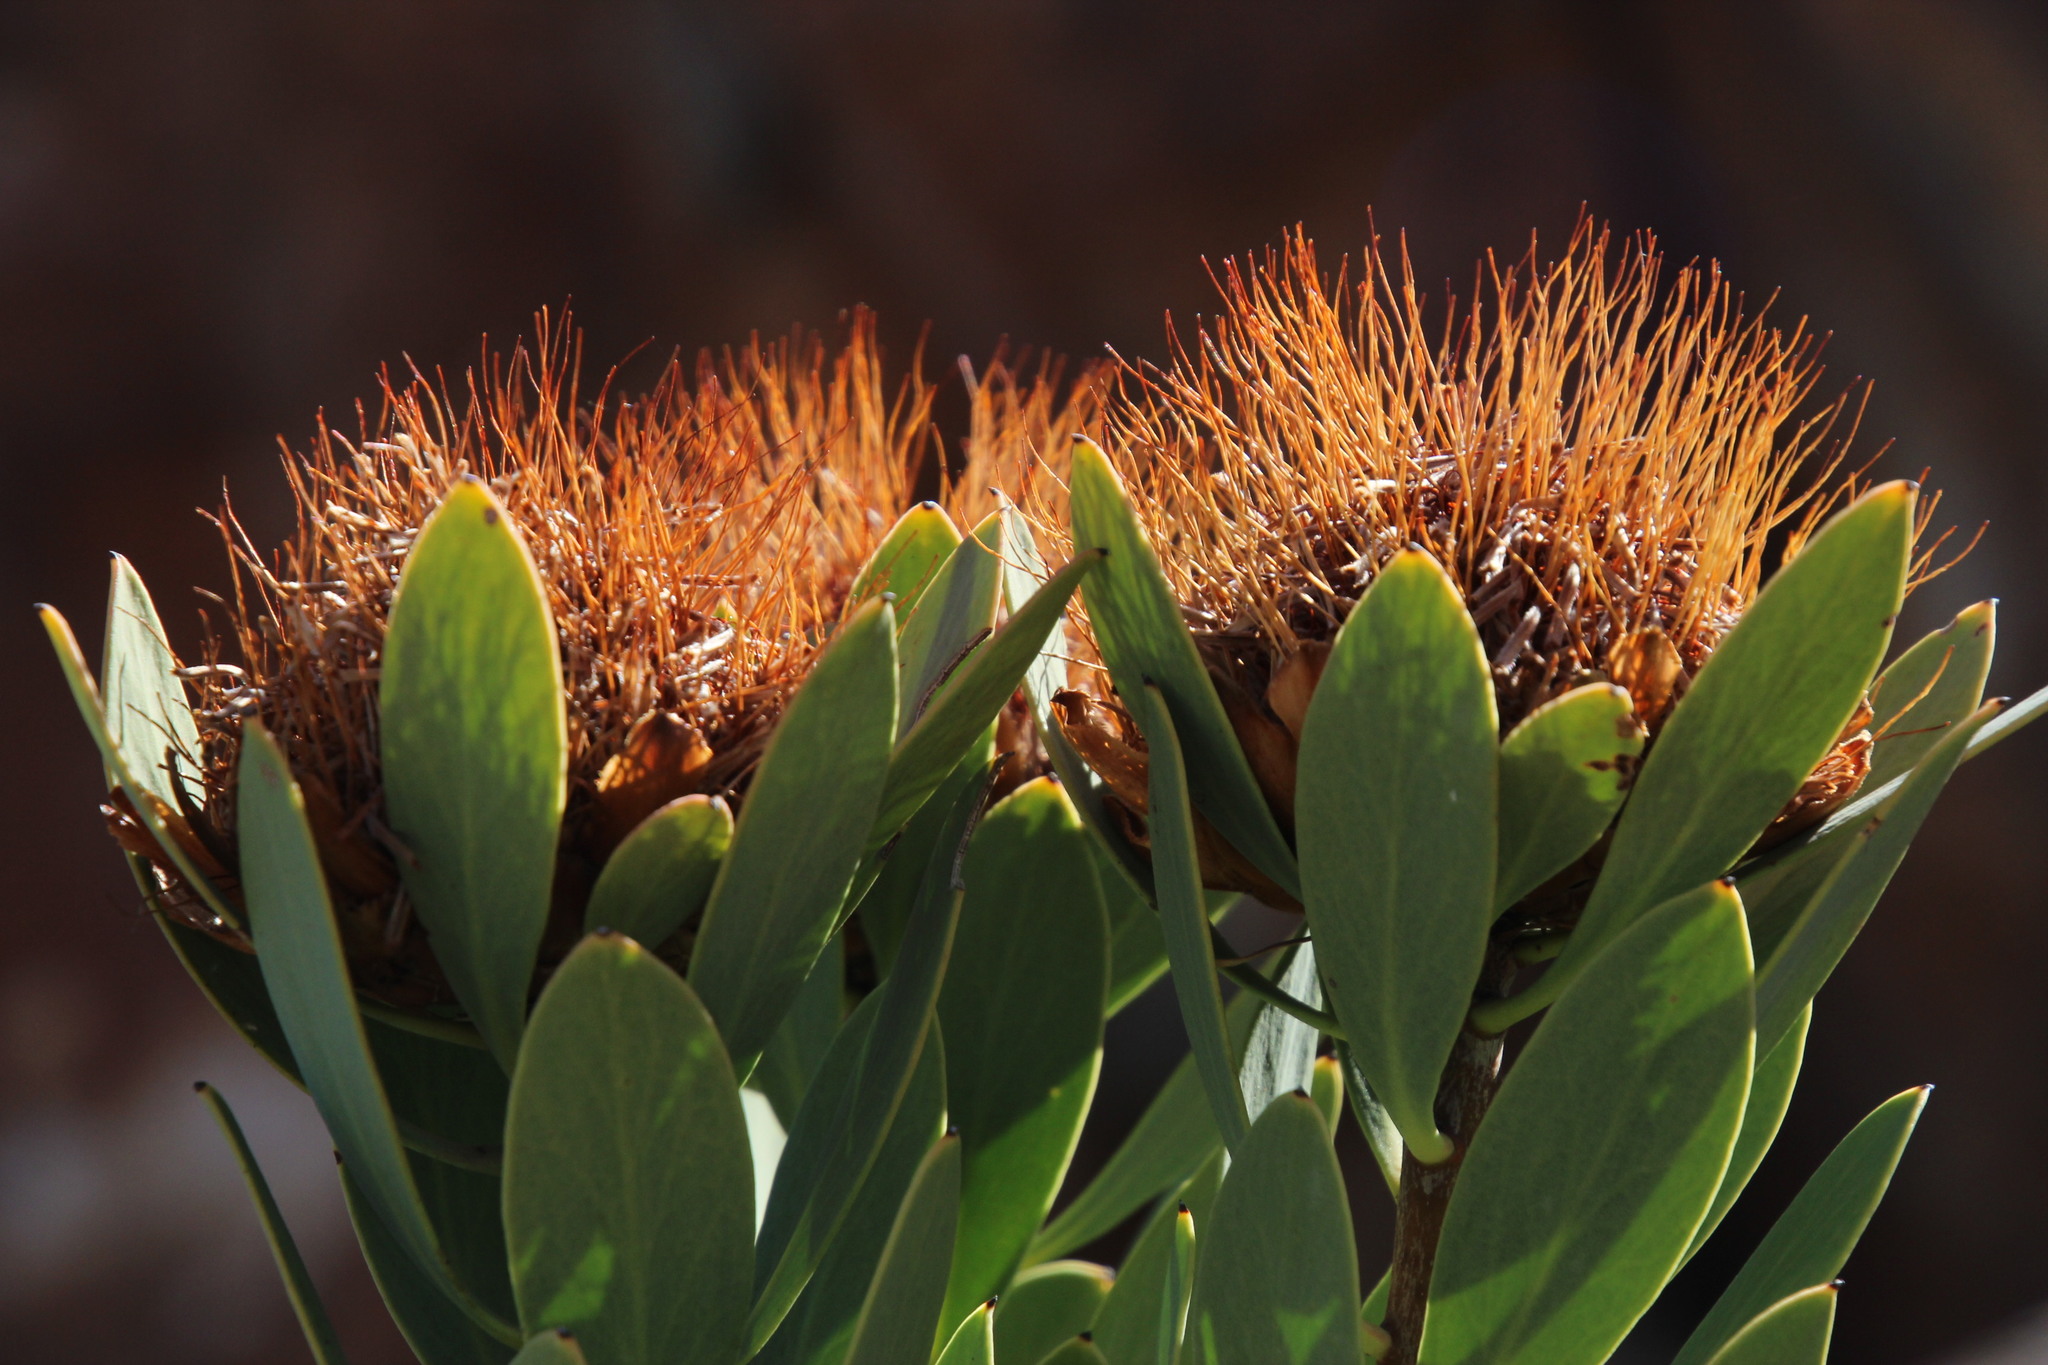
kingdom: Plantae
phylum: Tracheophyta
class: Magnoliopsida
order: Proteales
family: Proteaceae
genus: Protea
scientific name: Protea glabra
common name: Chestnut sugarbush
